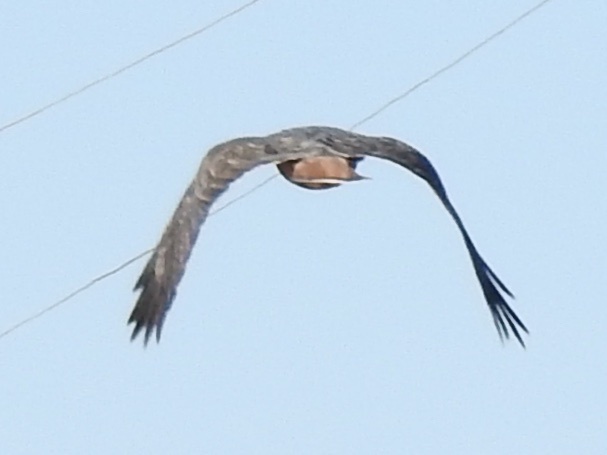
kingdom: Animalia
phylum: Chordata
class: Aves
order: Accipitriformes
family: Accipitridae
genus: Buteo
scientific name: Buteo jamaicensis
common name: Red-tailed hawk
